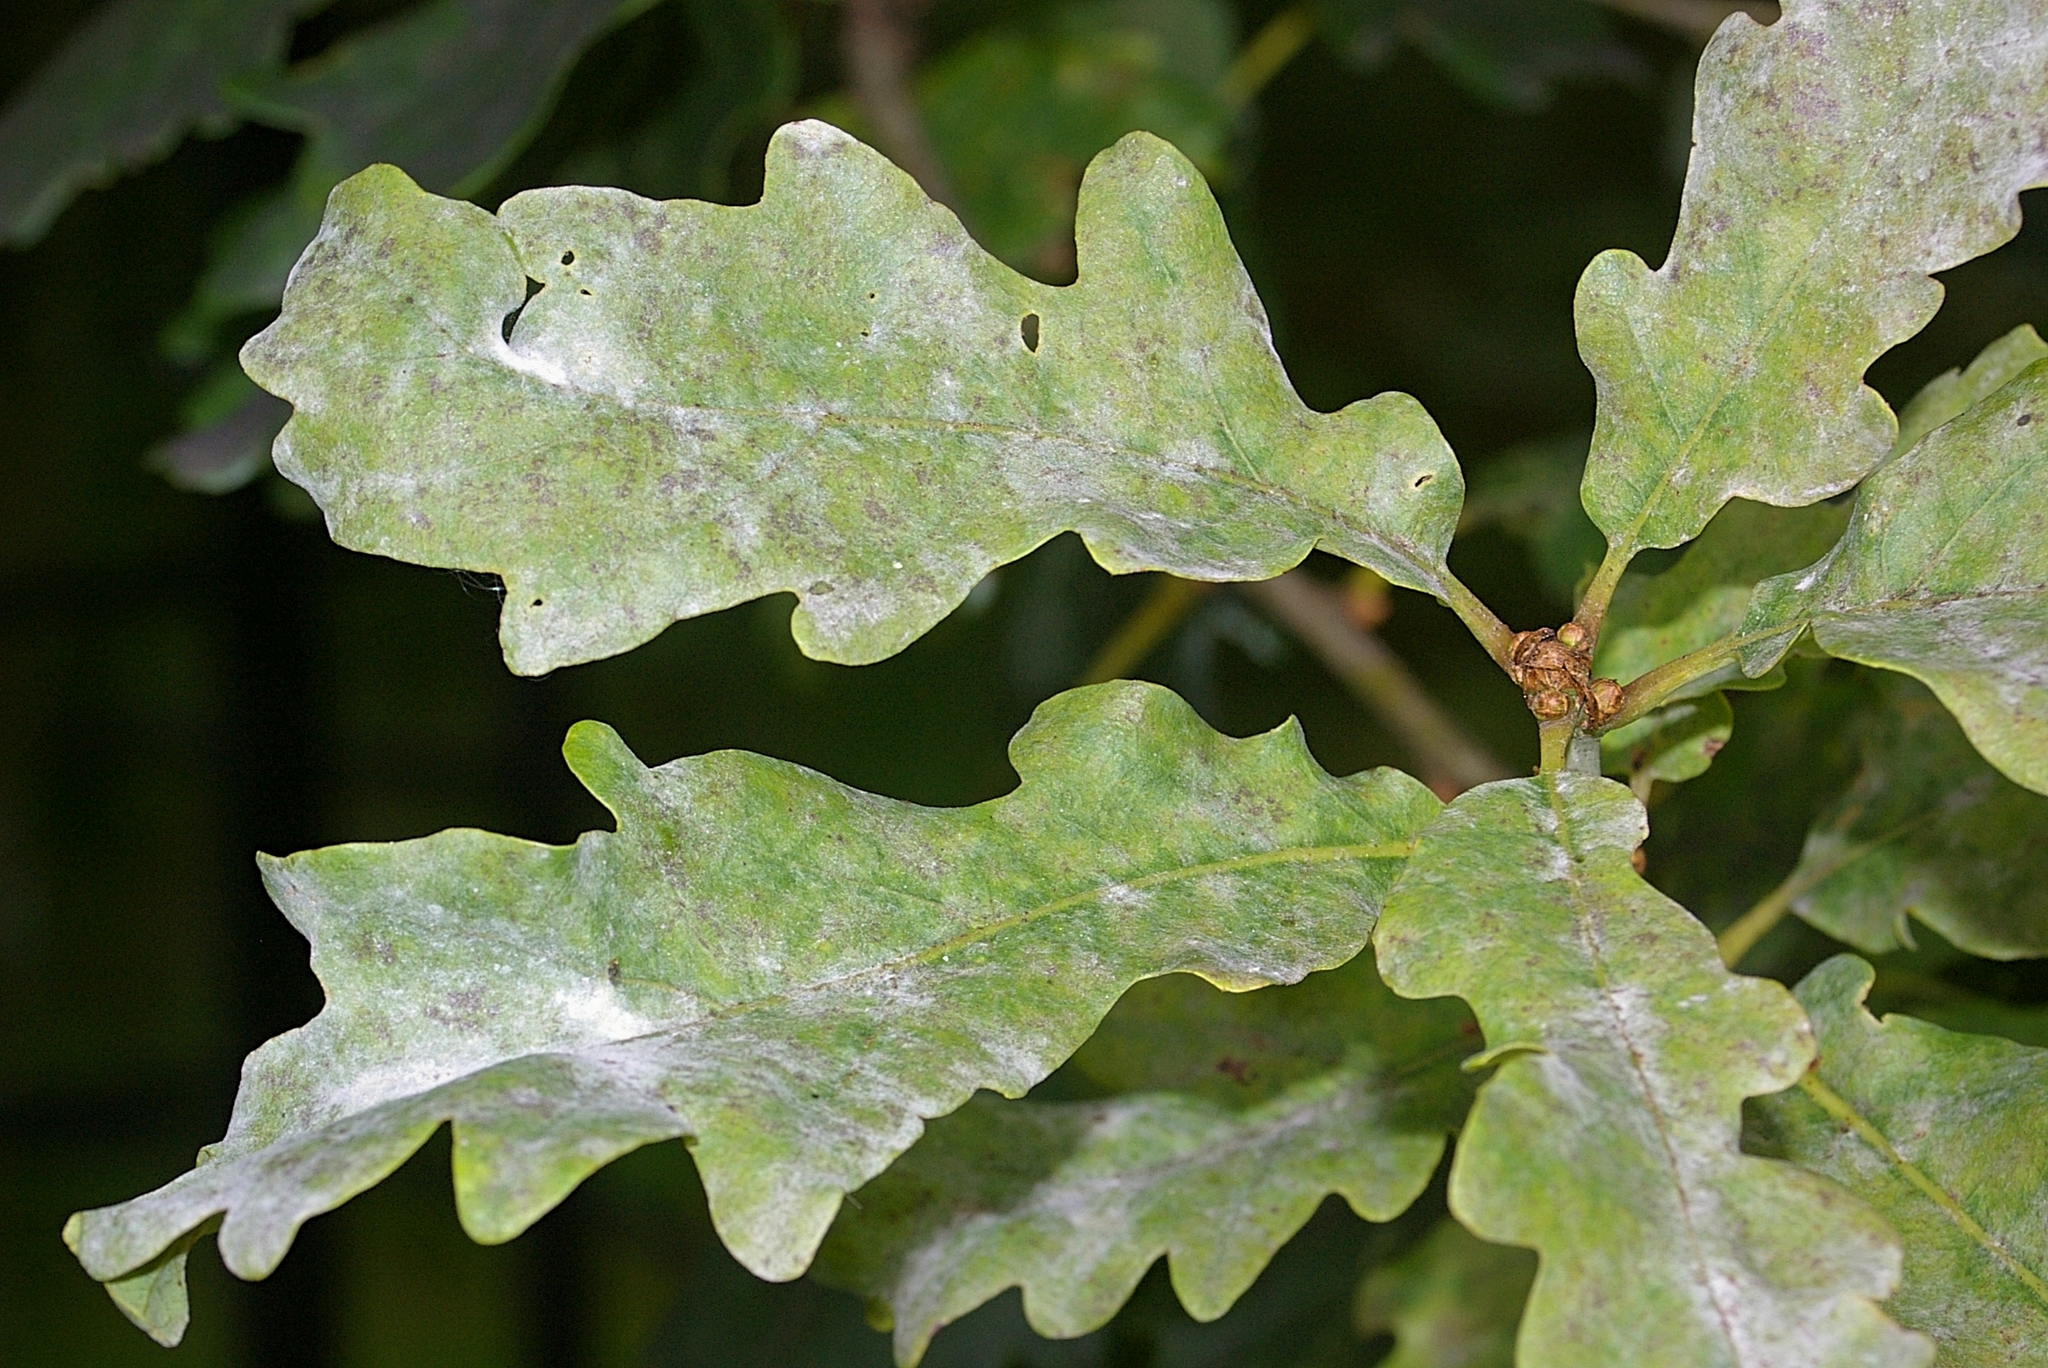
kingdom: Fungi
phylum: Ascomycota
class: Leotiomycetes
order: Helotiales
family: Erysiphaceae
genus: Erysiphe
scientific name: Erysiphe alphitoides
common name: Oak mildew
